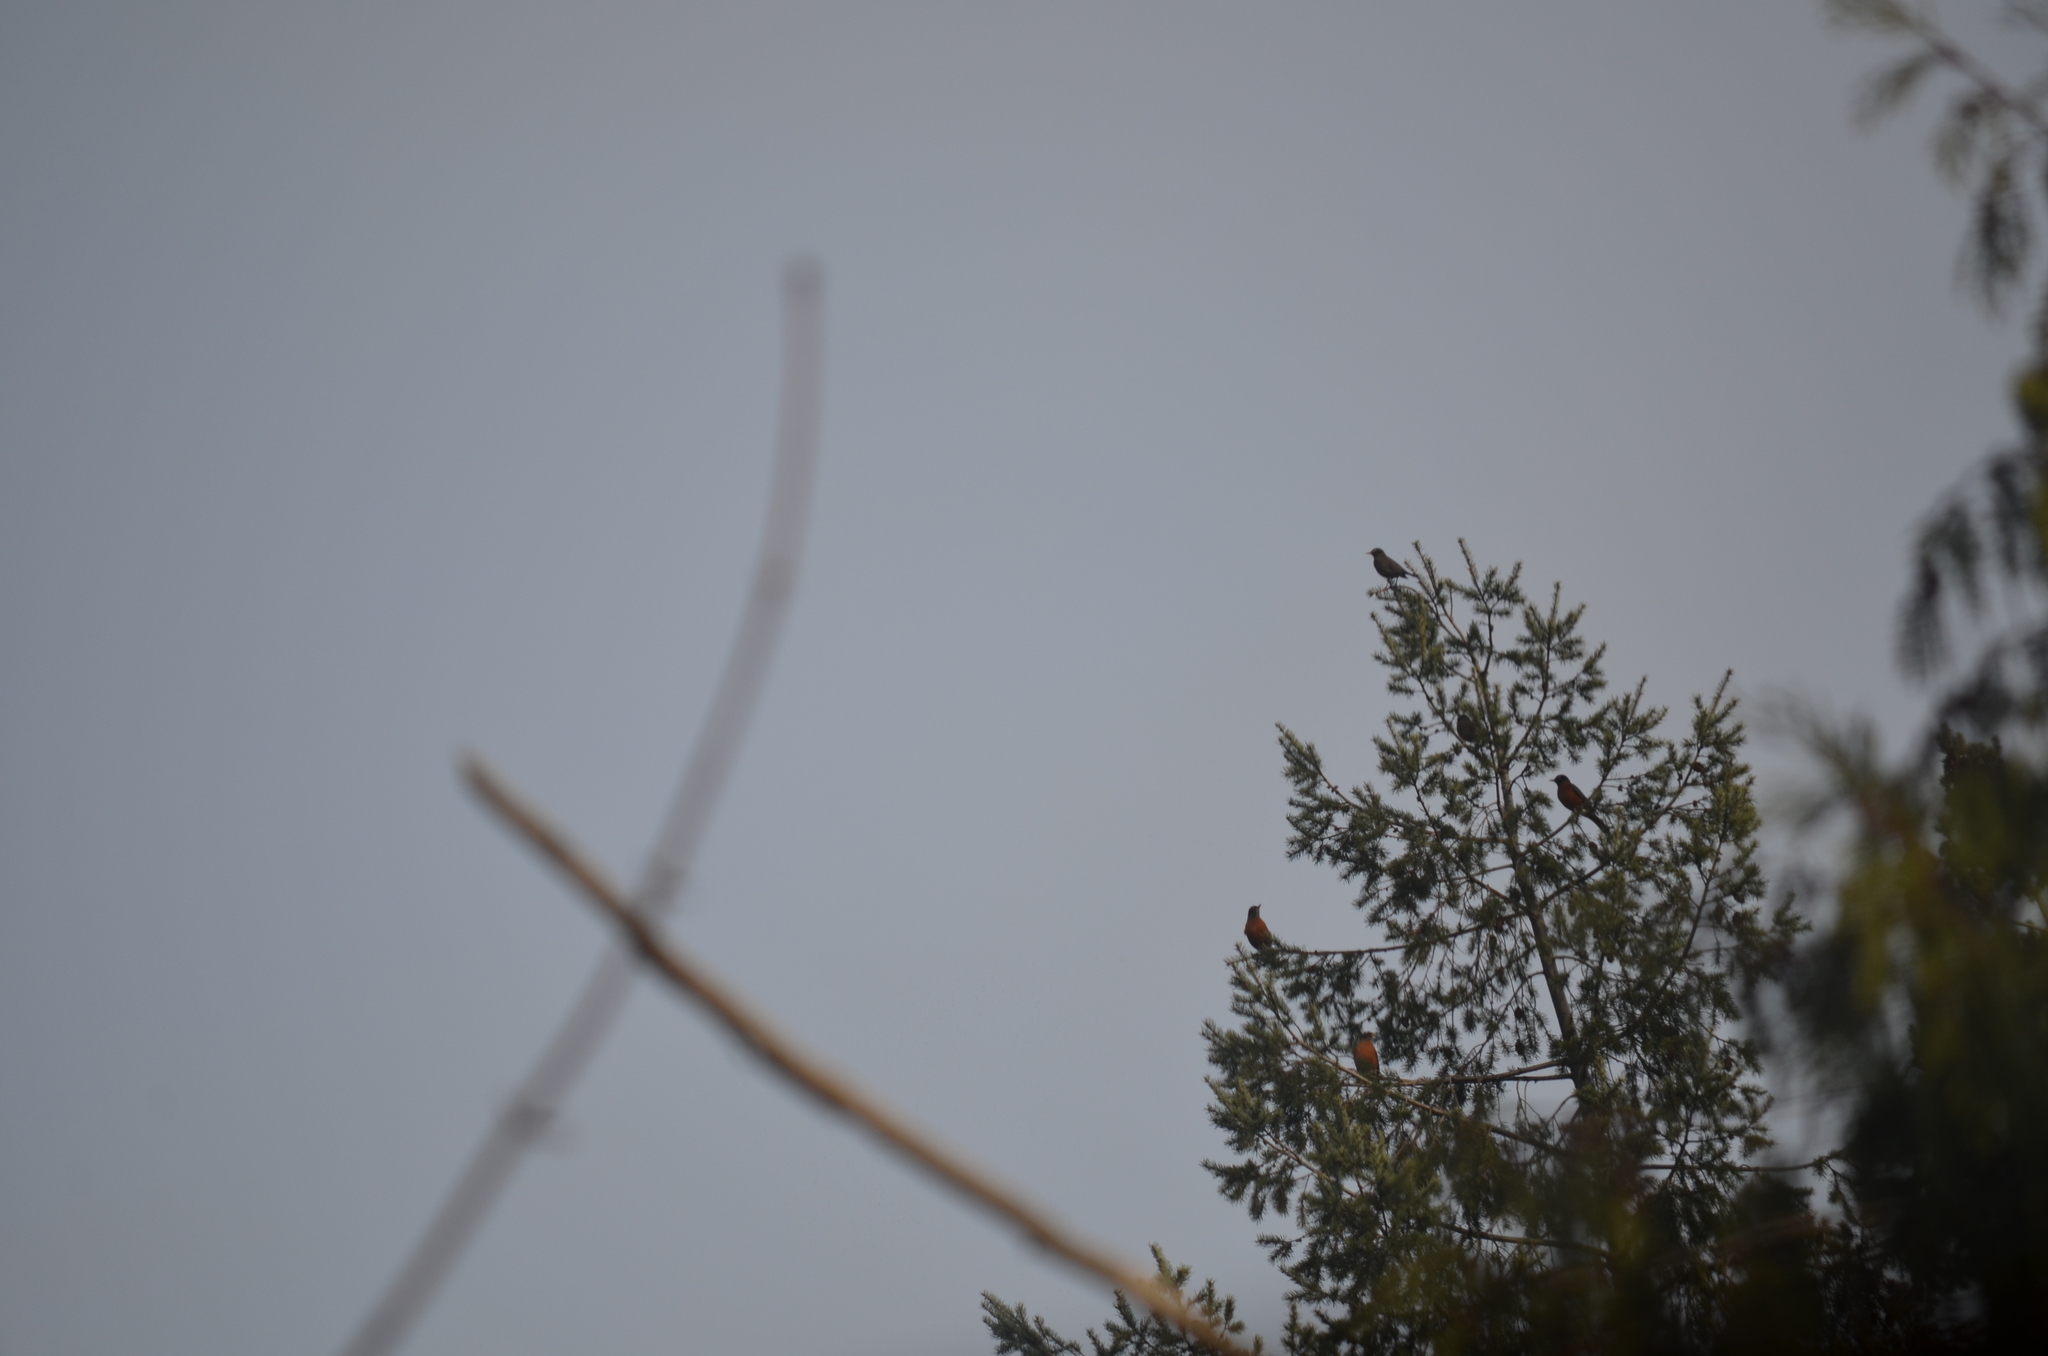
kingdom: Animalia
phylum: Chordata
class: Aves
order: Passeriformes
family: Turdidae
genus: Turdus
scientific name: Turdus migratorius
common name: American robin
